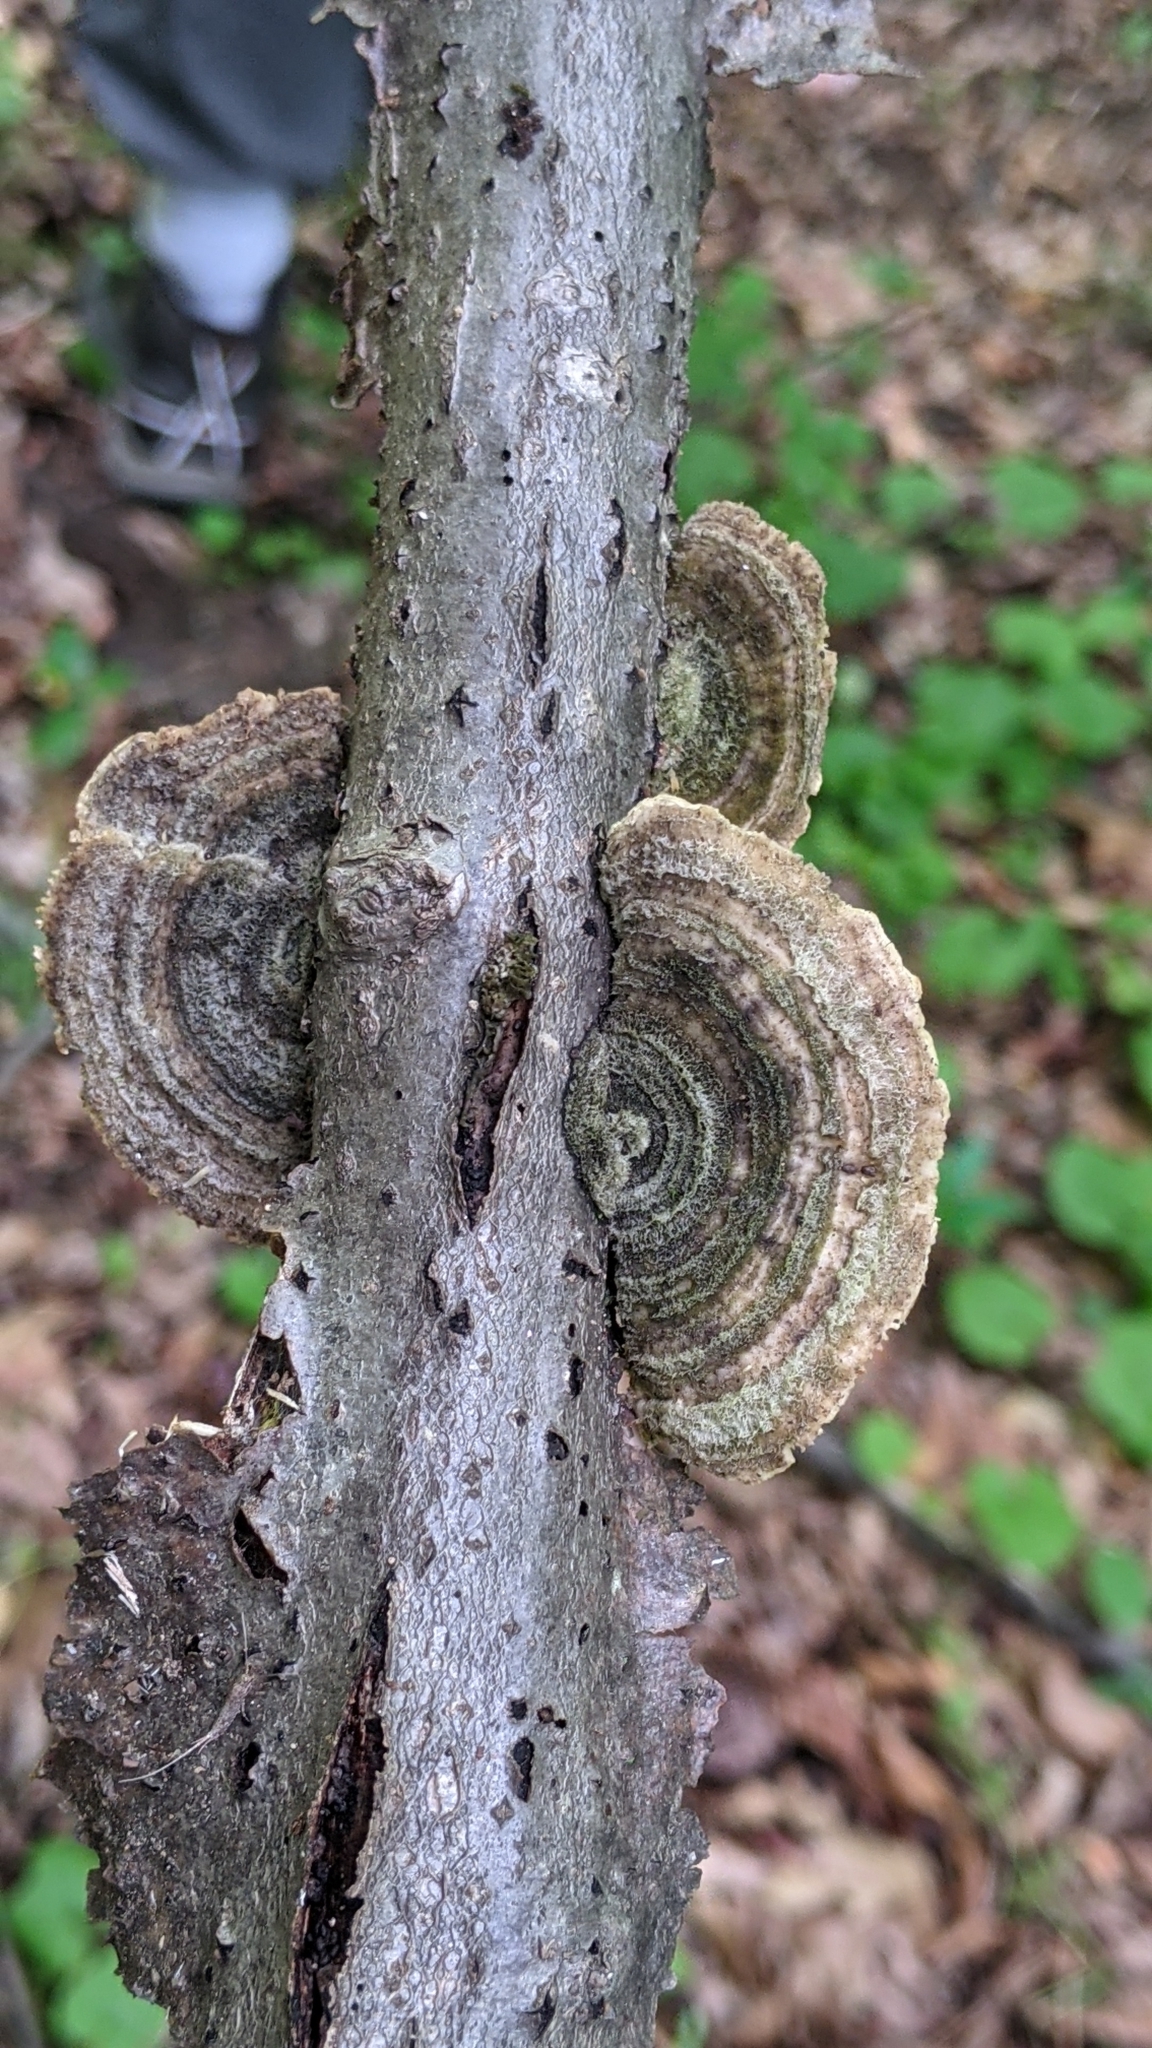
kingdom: Fungi
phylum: Basidiomycota
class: Agaricomycetes
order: Polyporales
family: Polyporaceae
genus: Lenzites
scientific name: Lenzites betulinus
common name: Birch mazegill
